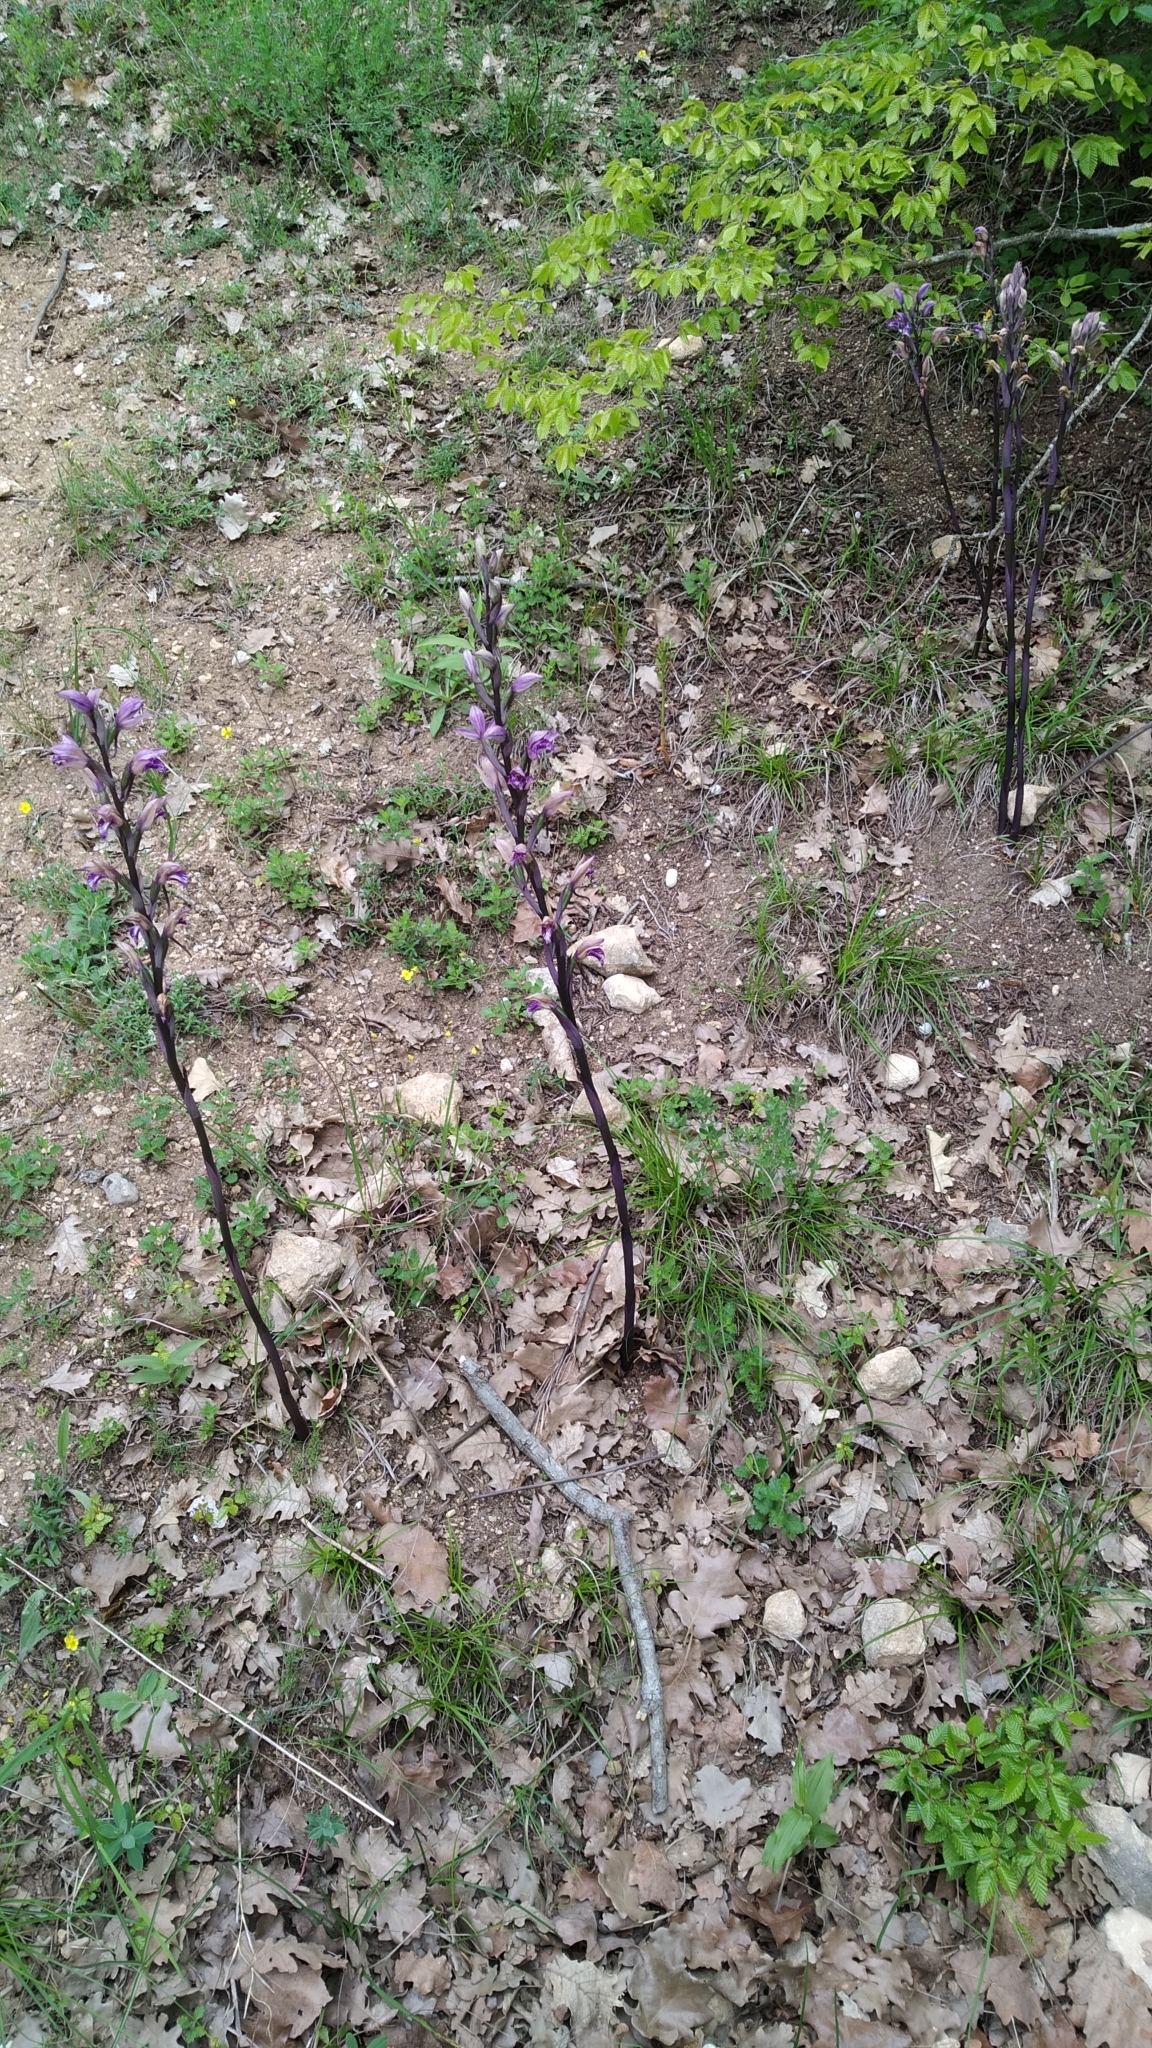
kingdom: Plantae
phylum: Tracheophyta
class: Liliopsida
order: Asparagales
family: Orchidaceae
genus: Limodorum
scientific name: Limodorum abortivum
